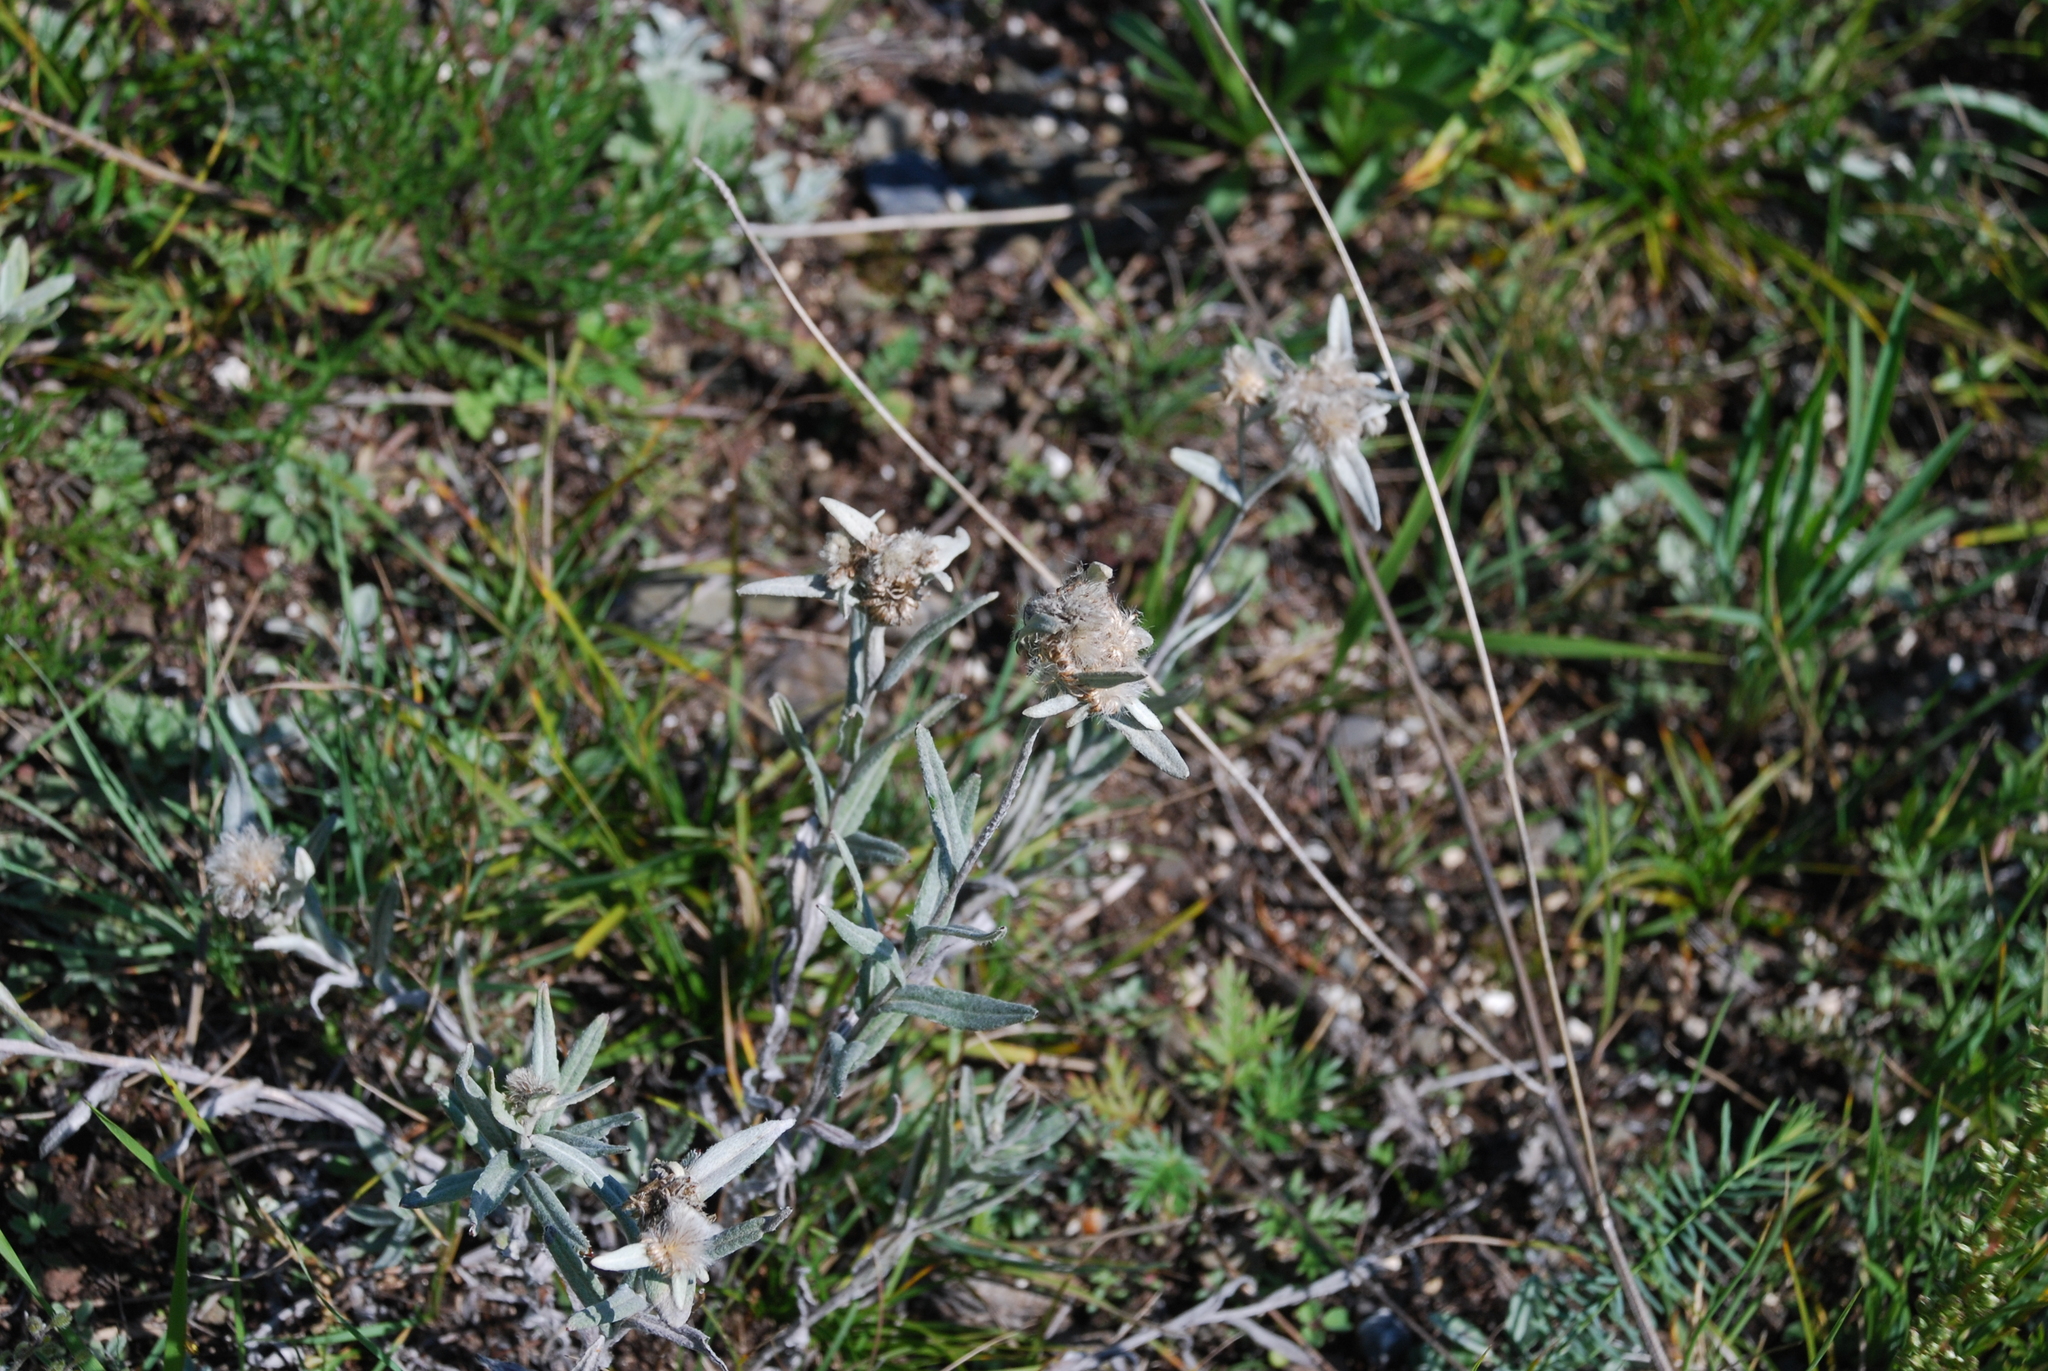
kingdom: Plantae
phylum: Tracheophyta
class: Magnoliopsida
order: Asterales
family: Asteraceae
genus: Leontopodium
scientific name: Leontopodium leontopodioides
